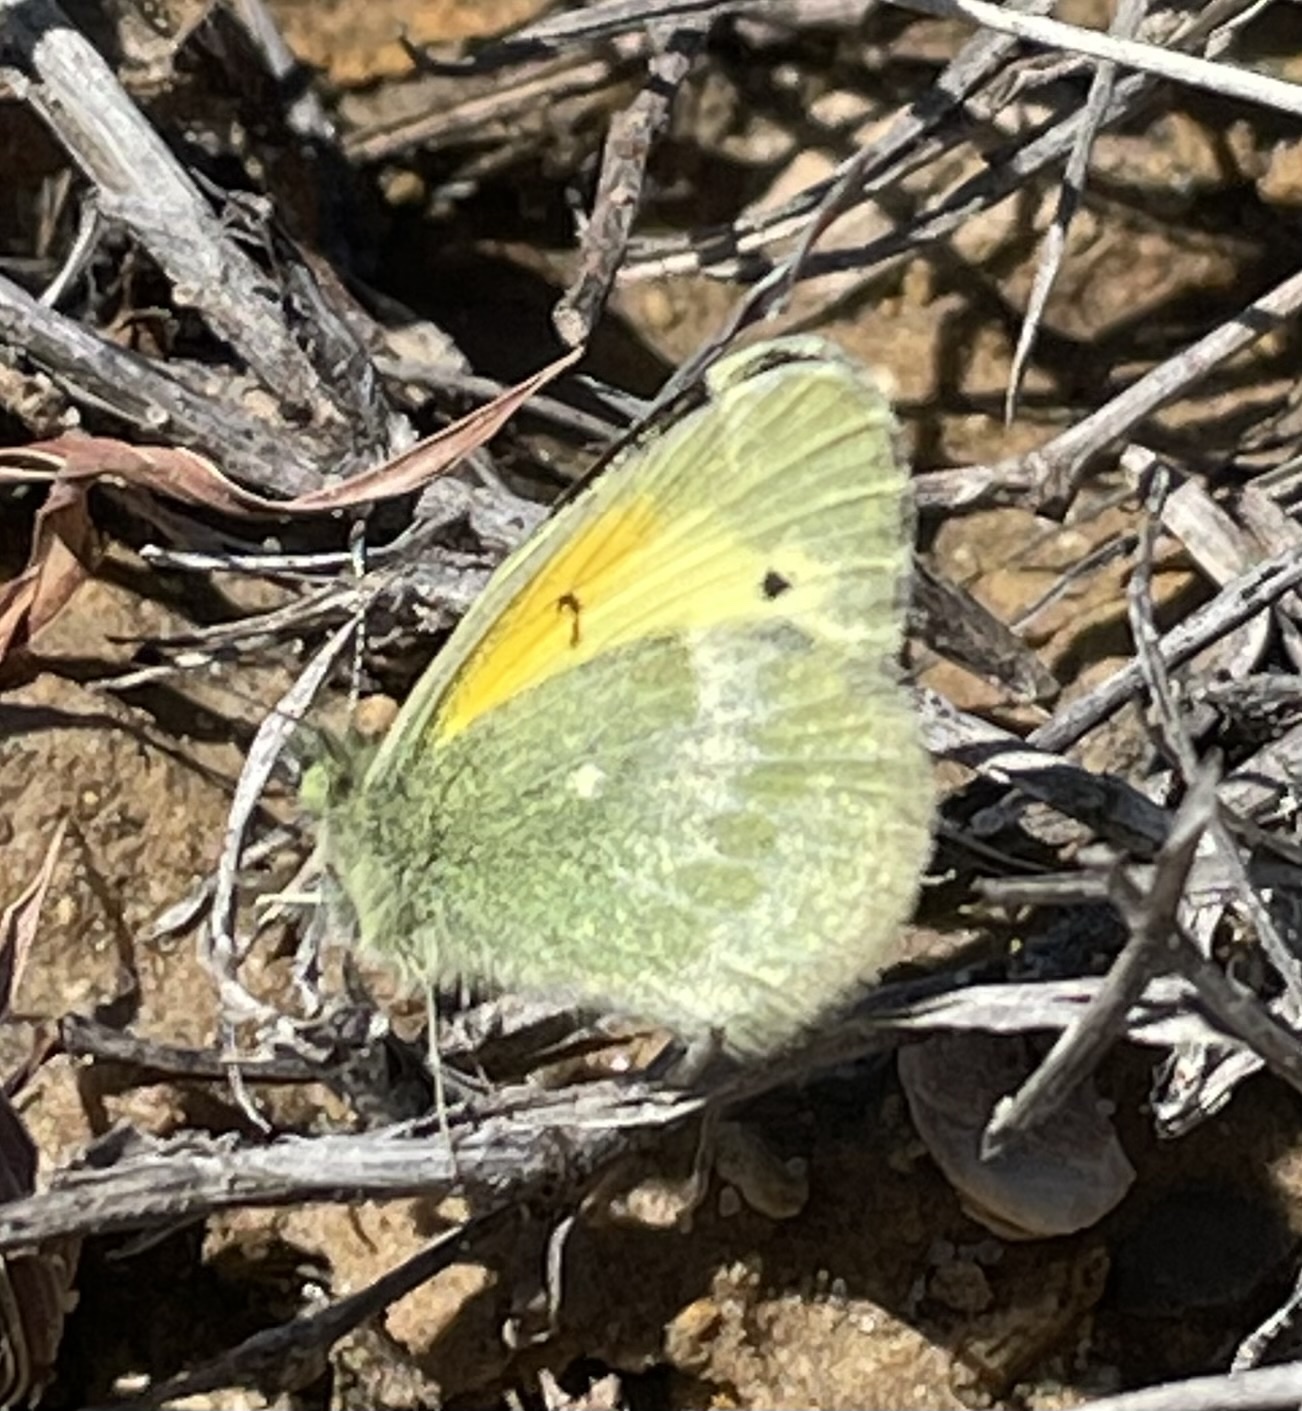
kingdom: Animalia
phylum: Arthropoda
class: Insecta
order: Lepidoptera
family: Pieridae
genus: Nathalis
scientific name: Nathalis iole
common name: Dainty sulphur
